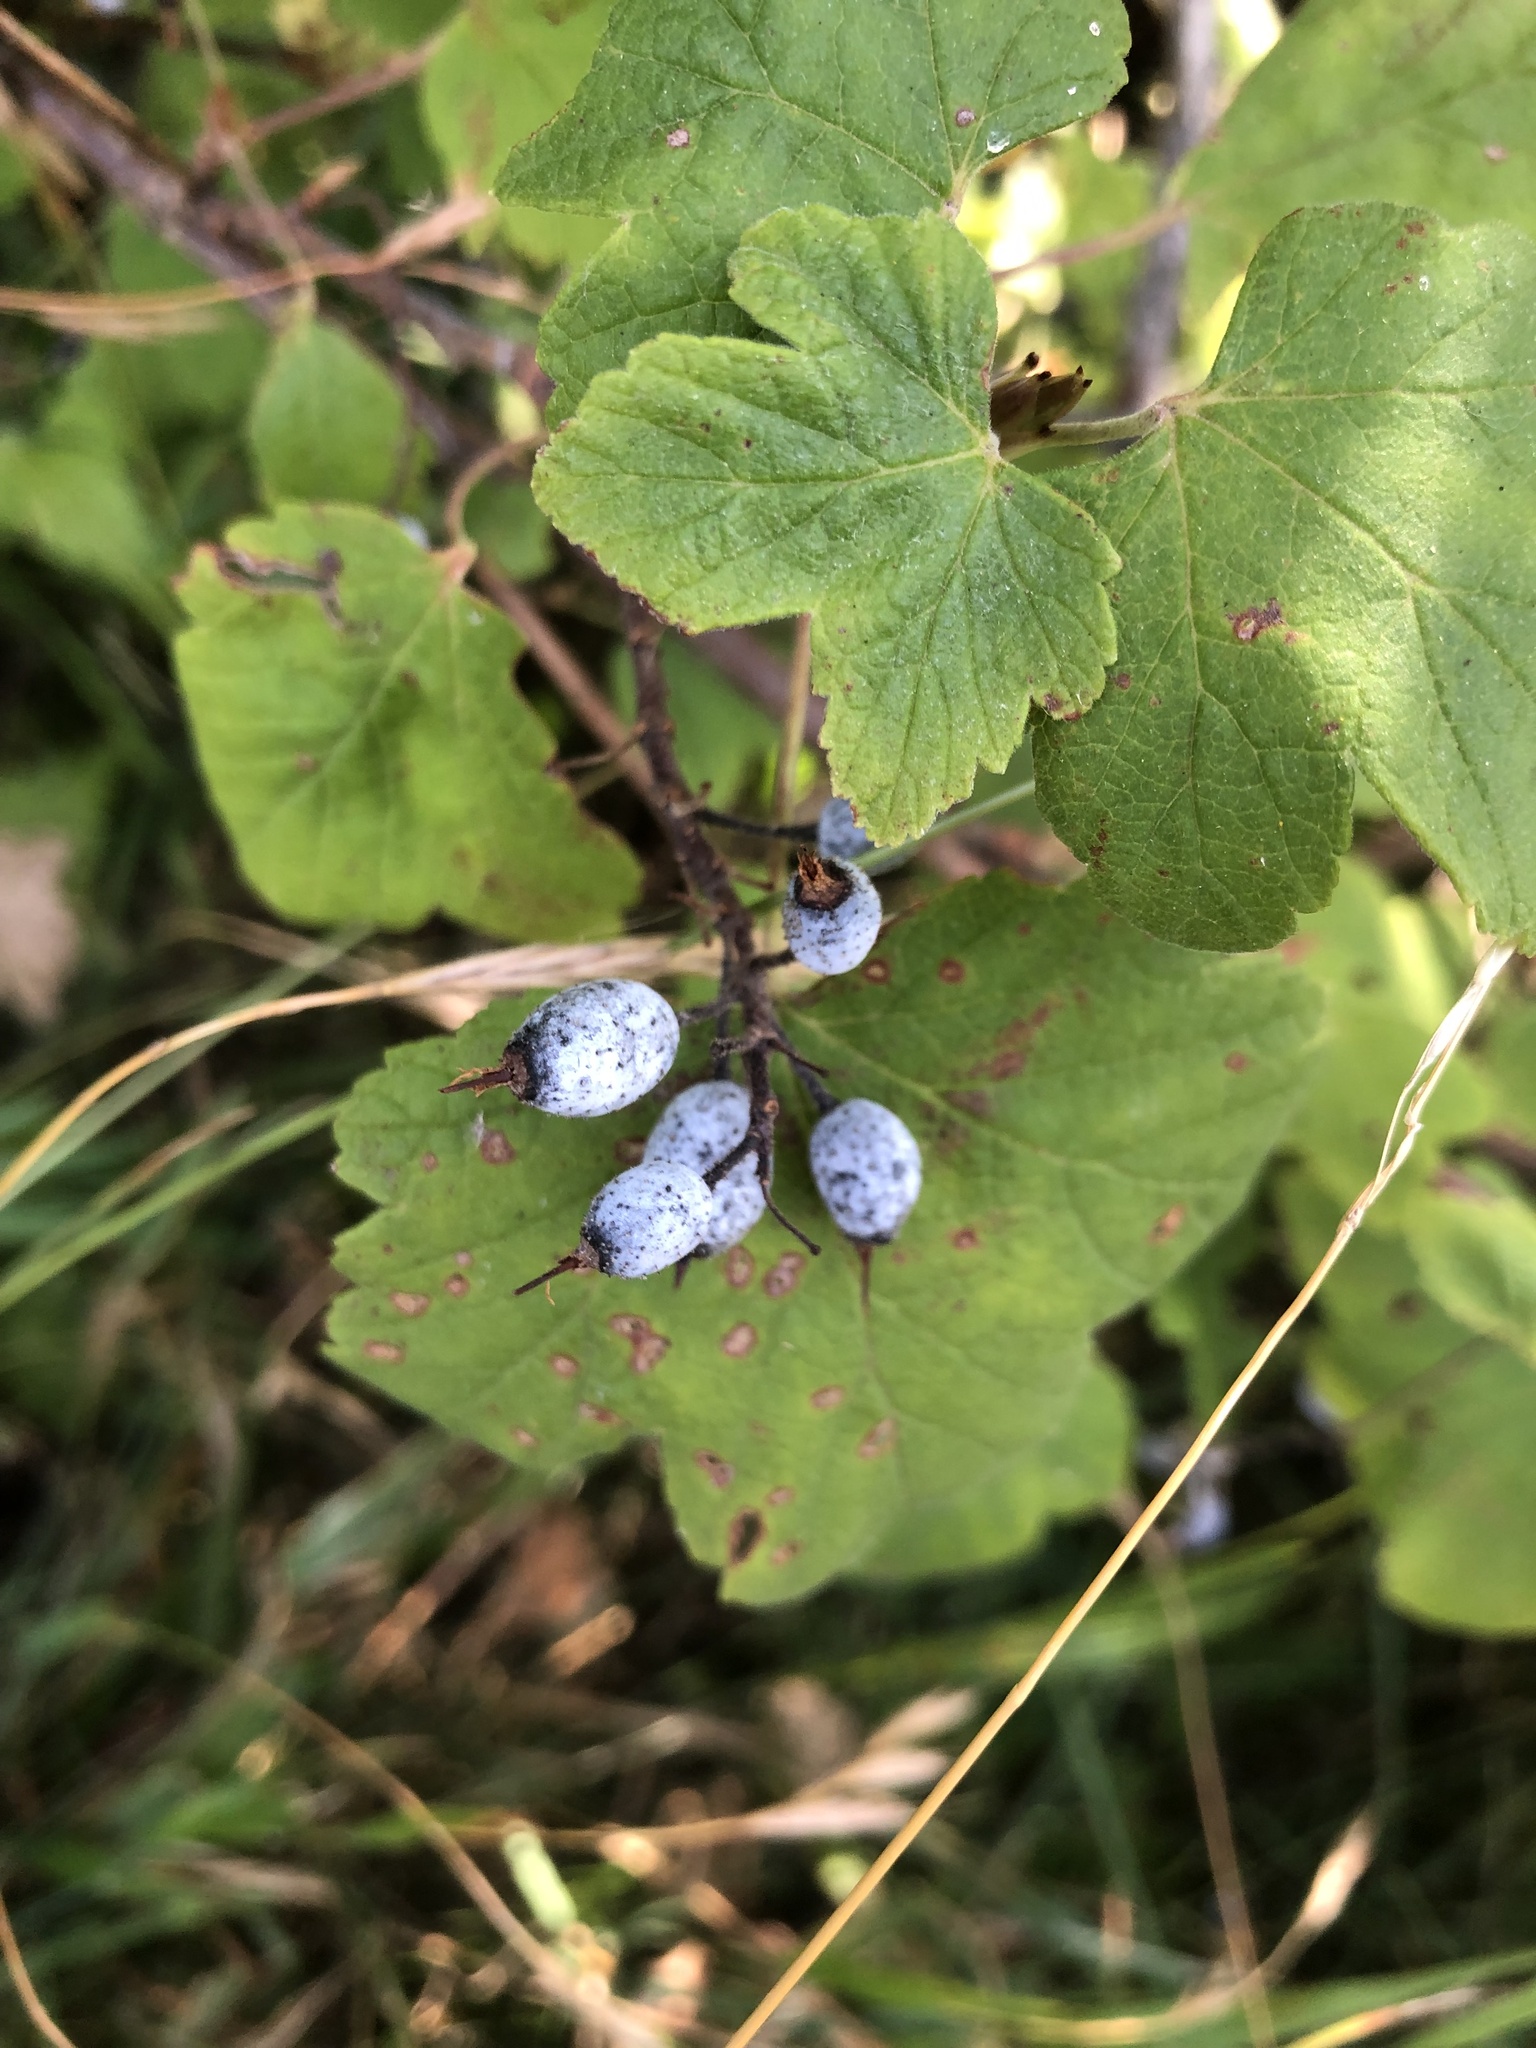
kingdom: Plantae
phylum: Tracheophyta
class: Magnoliopsida
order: Saxifragales
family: Grossulariaceae
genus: Ribes
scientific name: Ribes sanguineum
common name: Flowering currant
